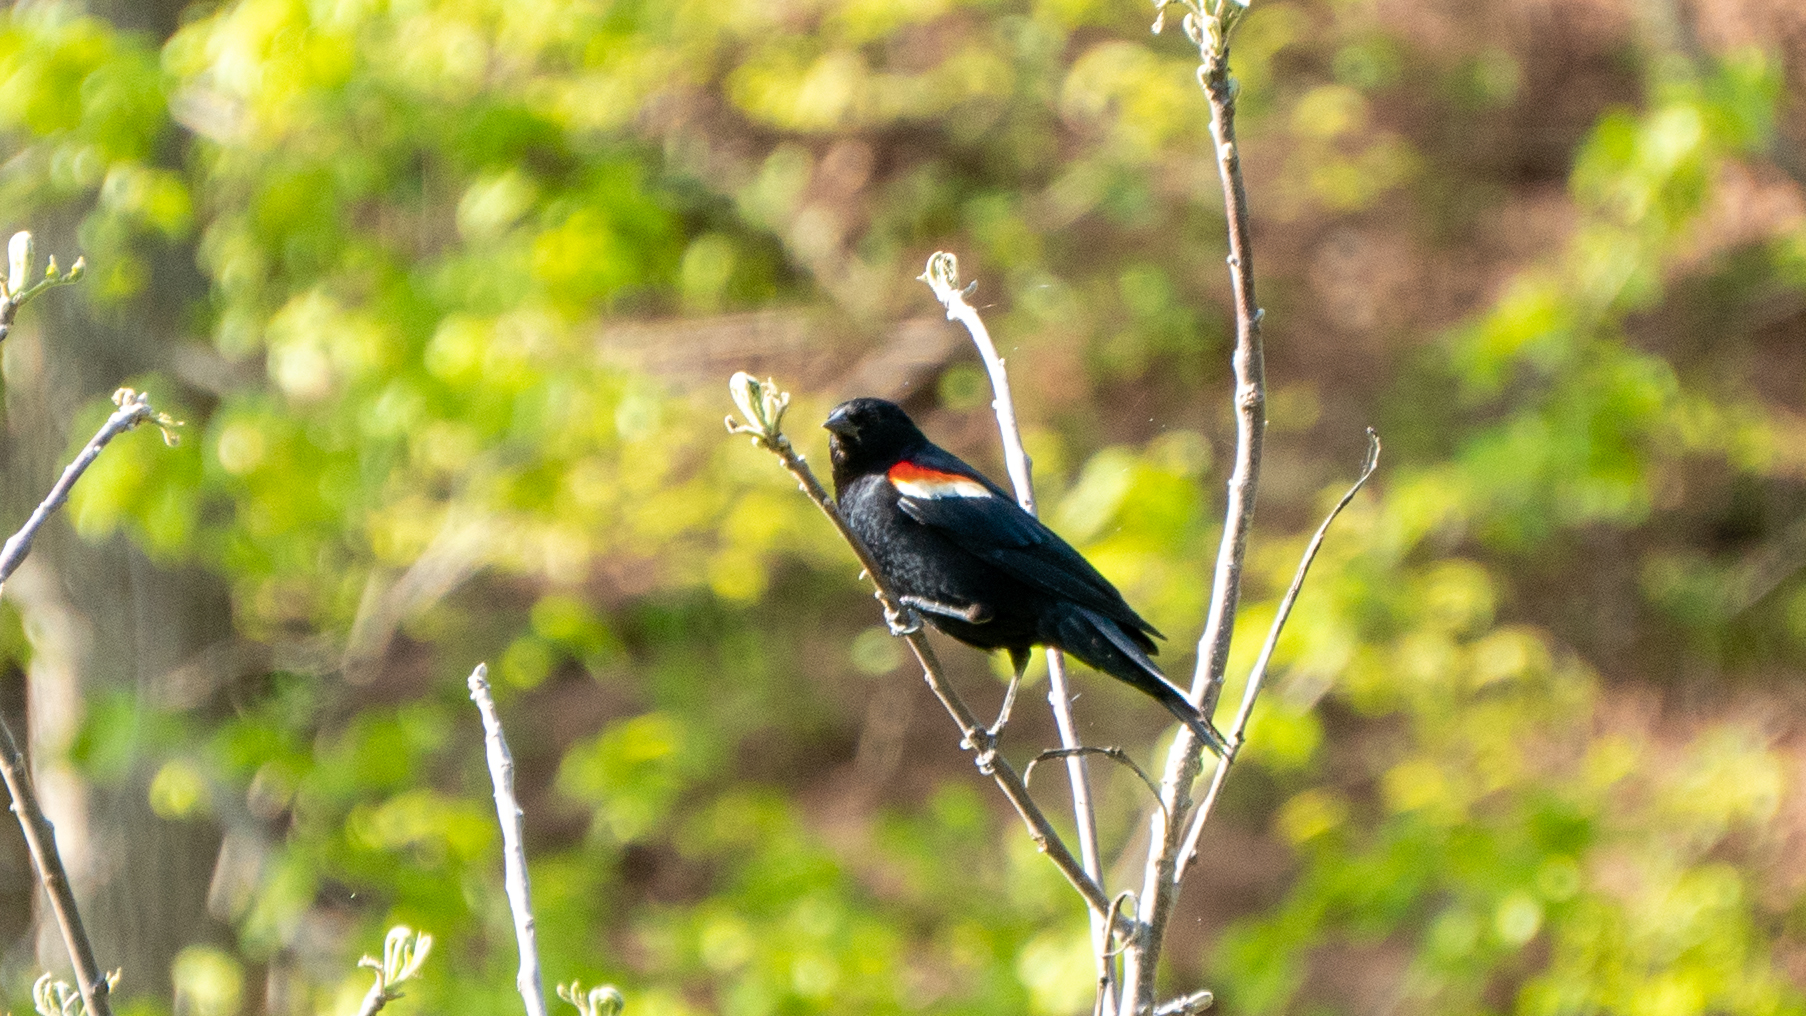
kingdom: Animalia
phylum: Chordata
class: Aves
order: Passeriformes
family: Icteridae
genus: Agelaius
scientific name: Agelaius phoeniceus
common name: Red-winged blackbird
